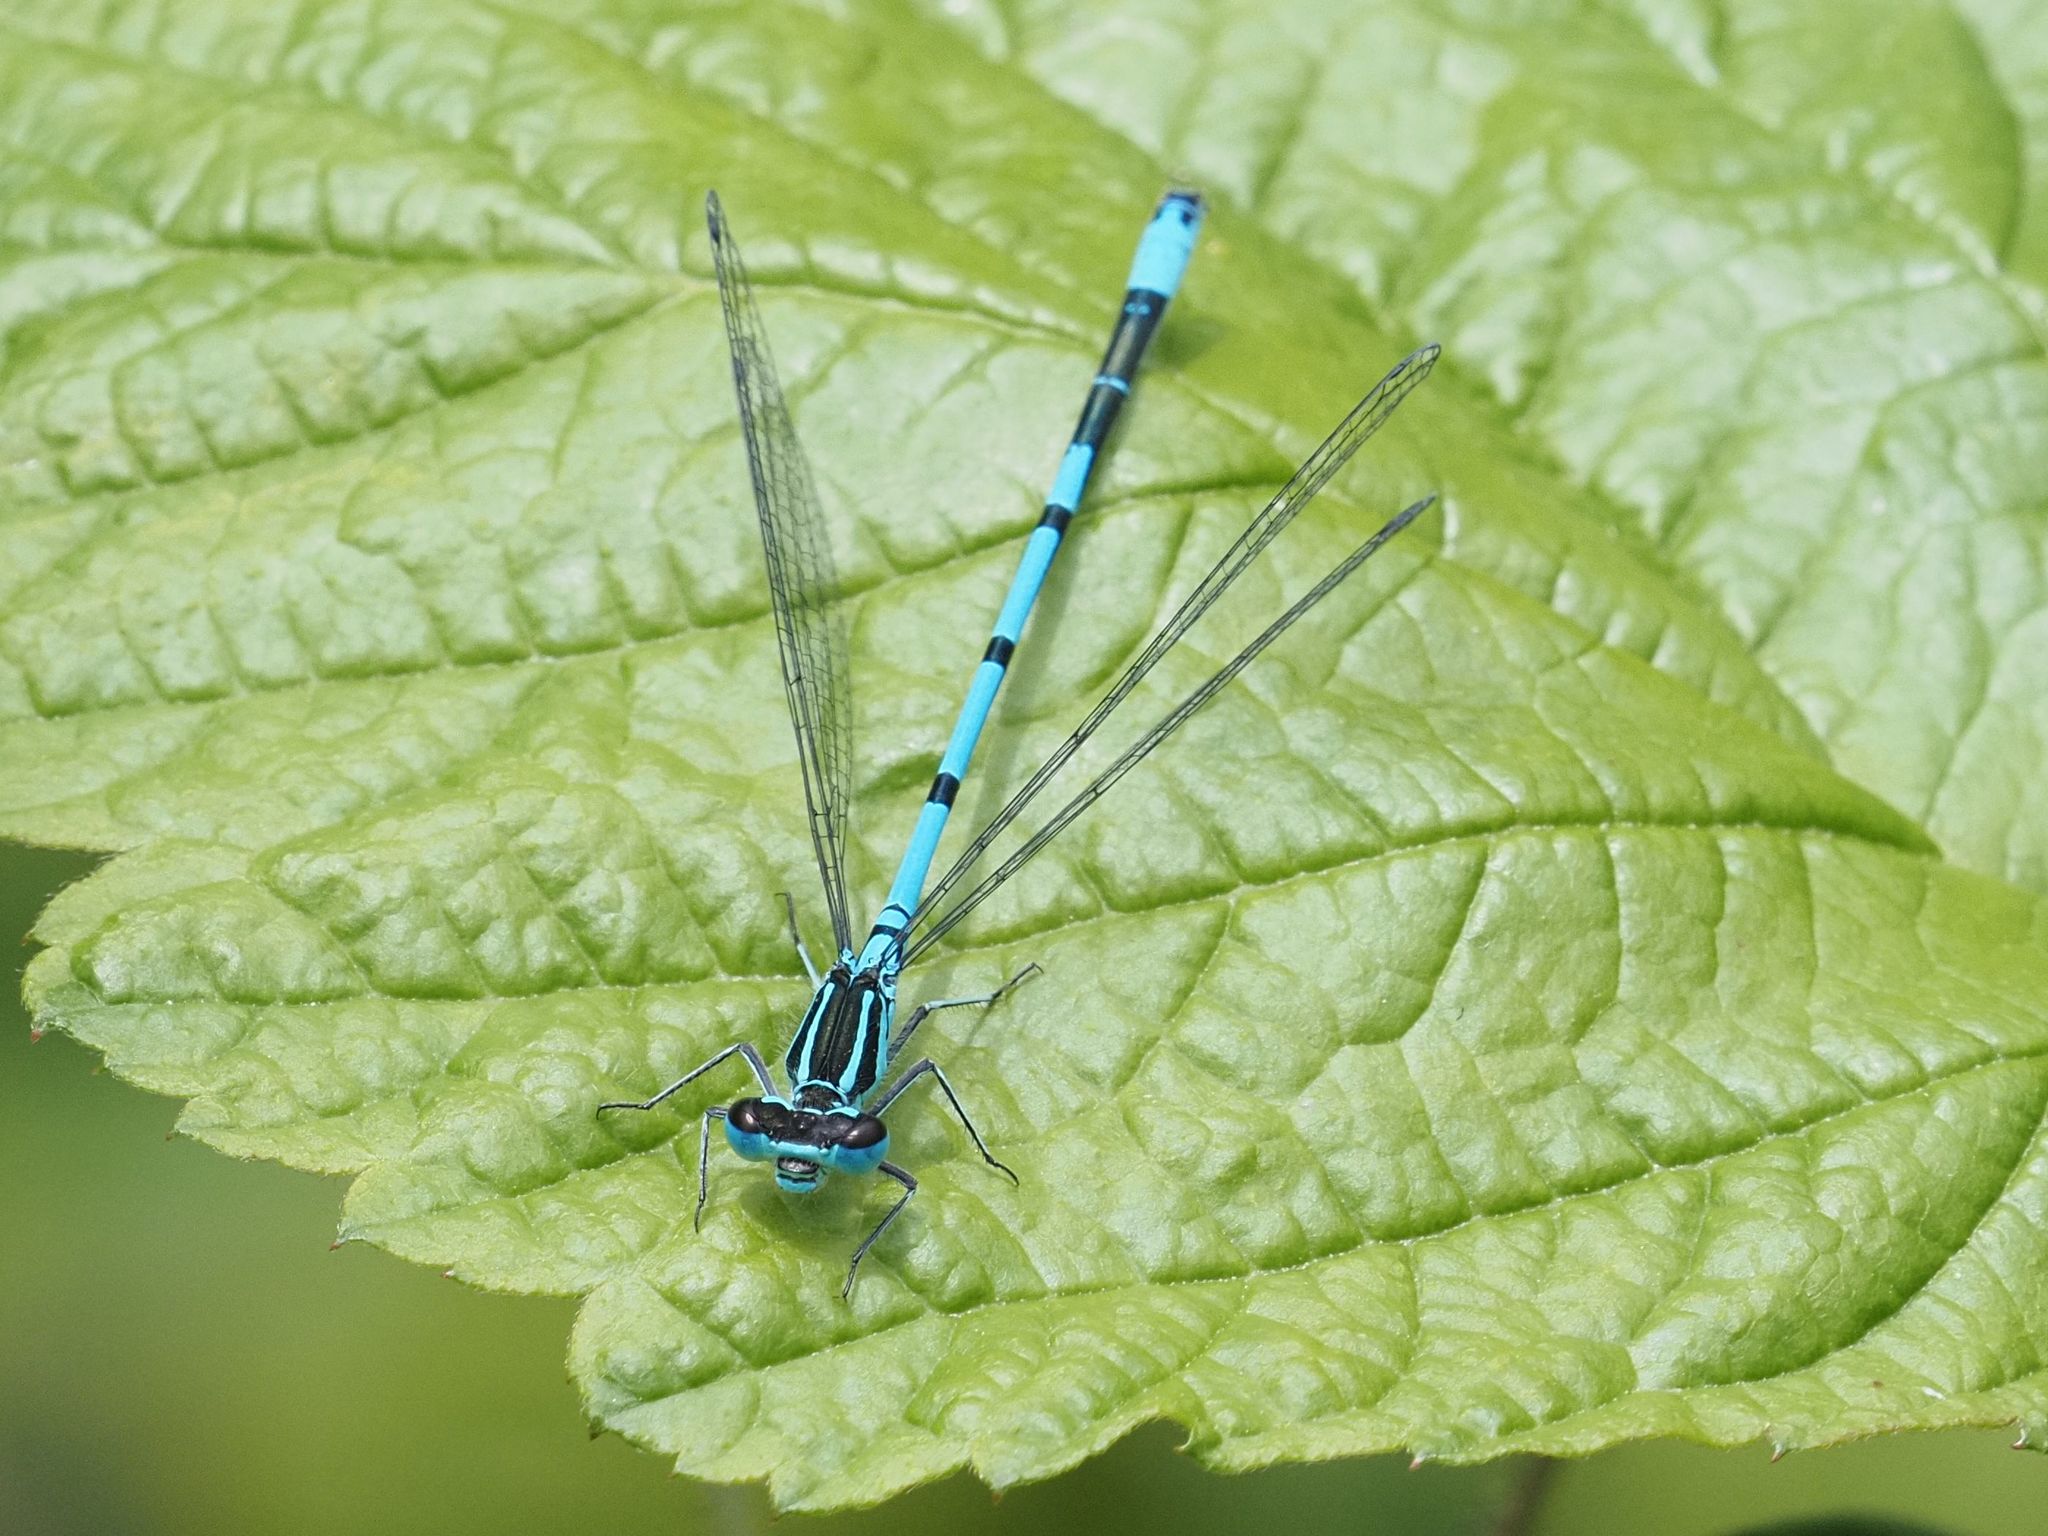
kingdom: Animalia
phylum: Arthropoda
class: Insecta
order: Odonata
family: Coenagrionidae
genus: Coenagrion
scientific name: Coenagrion puella
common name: Azure damselfly
